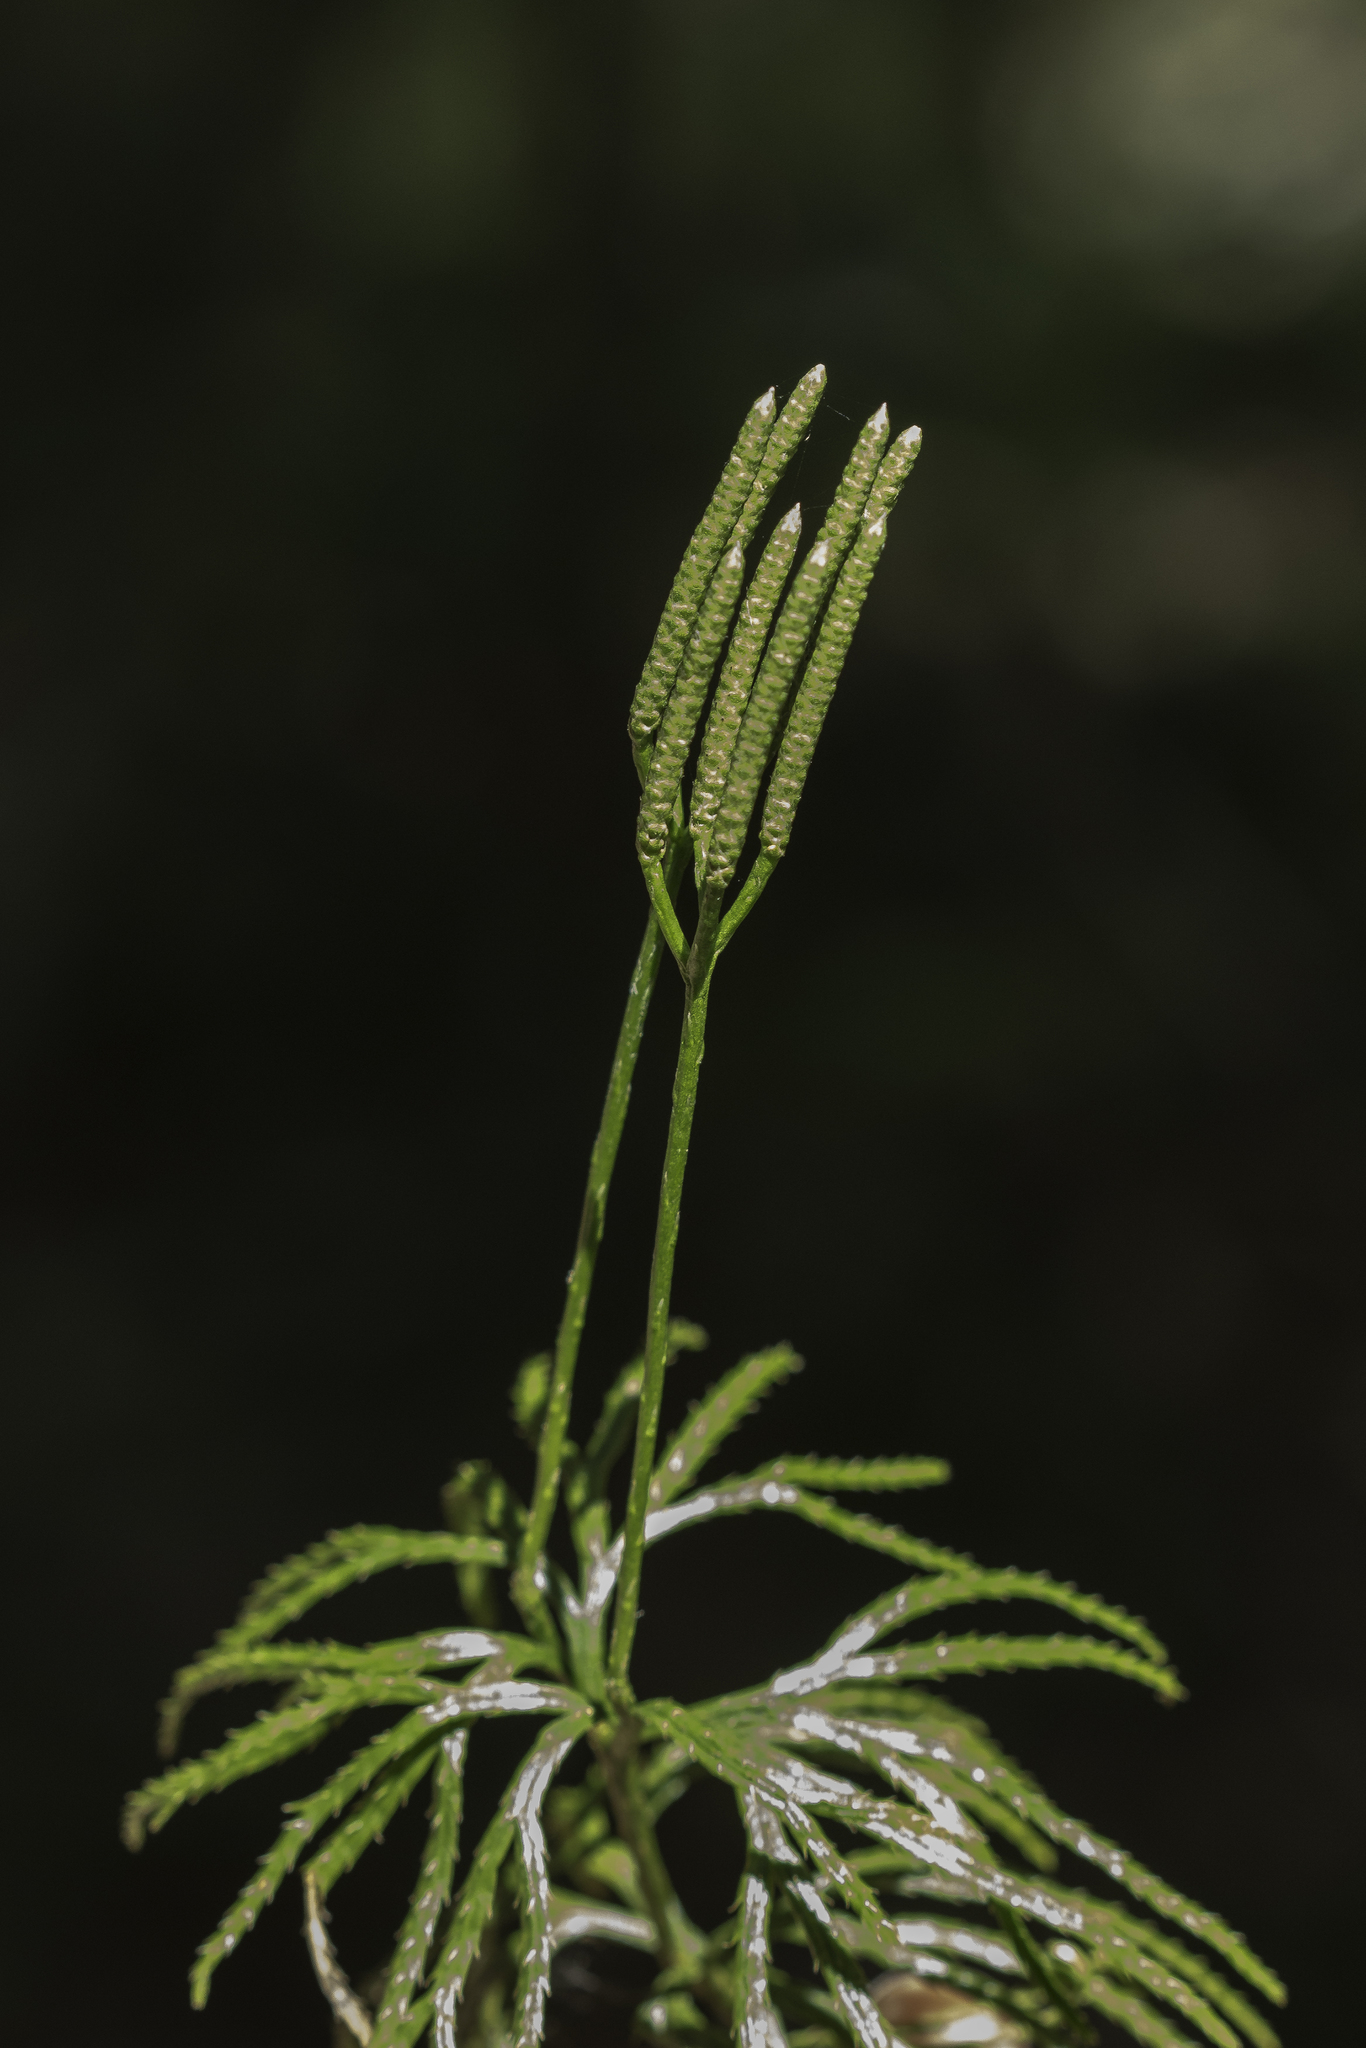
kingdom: Plantae
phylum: Tracheophyta
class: Lycopodiopsida
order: Lycopodiales
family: Lycopodiaceae
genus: Diphasiastrum
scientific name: Diphasiastrum digitatum
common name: Southern running-pine
